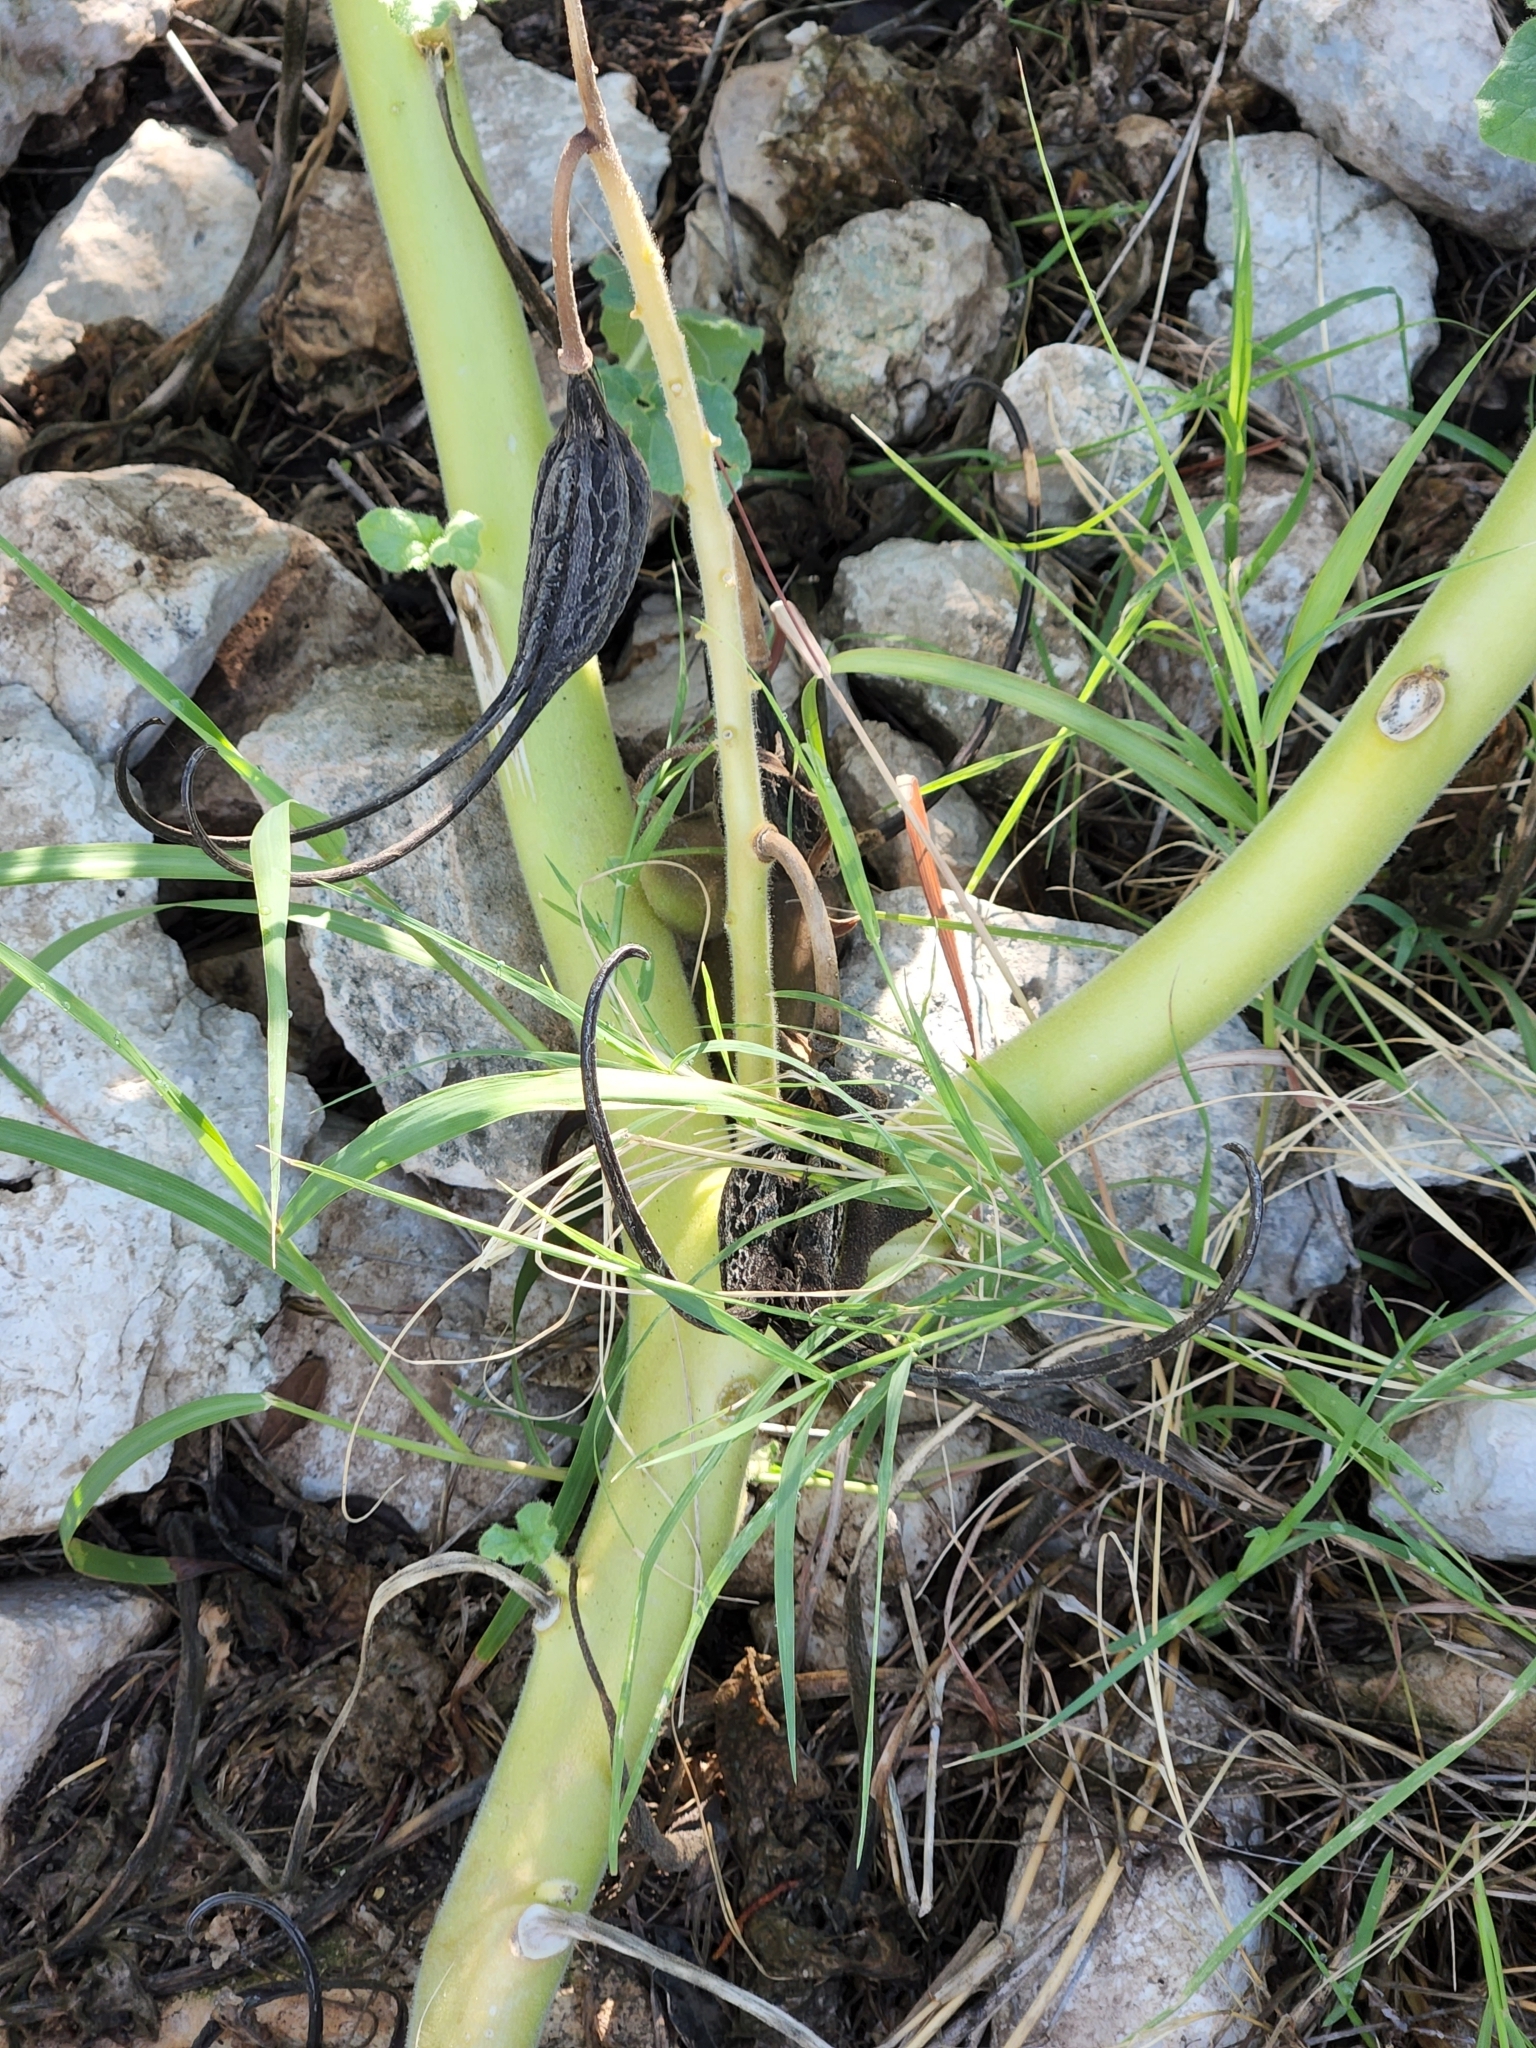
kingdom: Plantae
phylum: Tracheophyta
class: Magnoliopsida
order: Lamiales
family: Martyniaceae
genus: Proboscidea
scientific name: Proboscidea louisianica
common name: Elephant tusks
